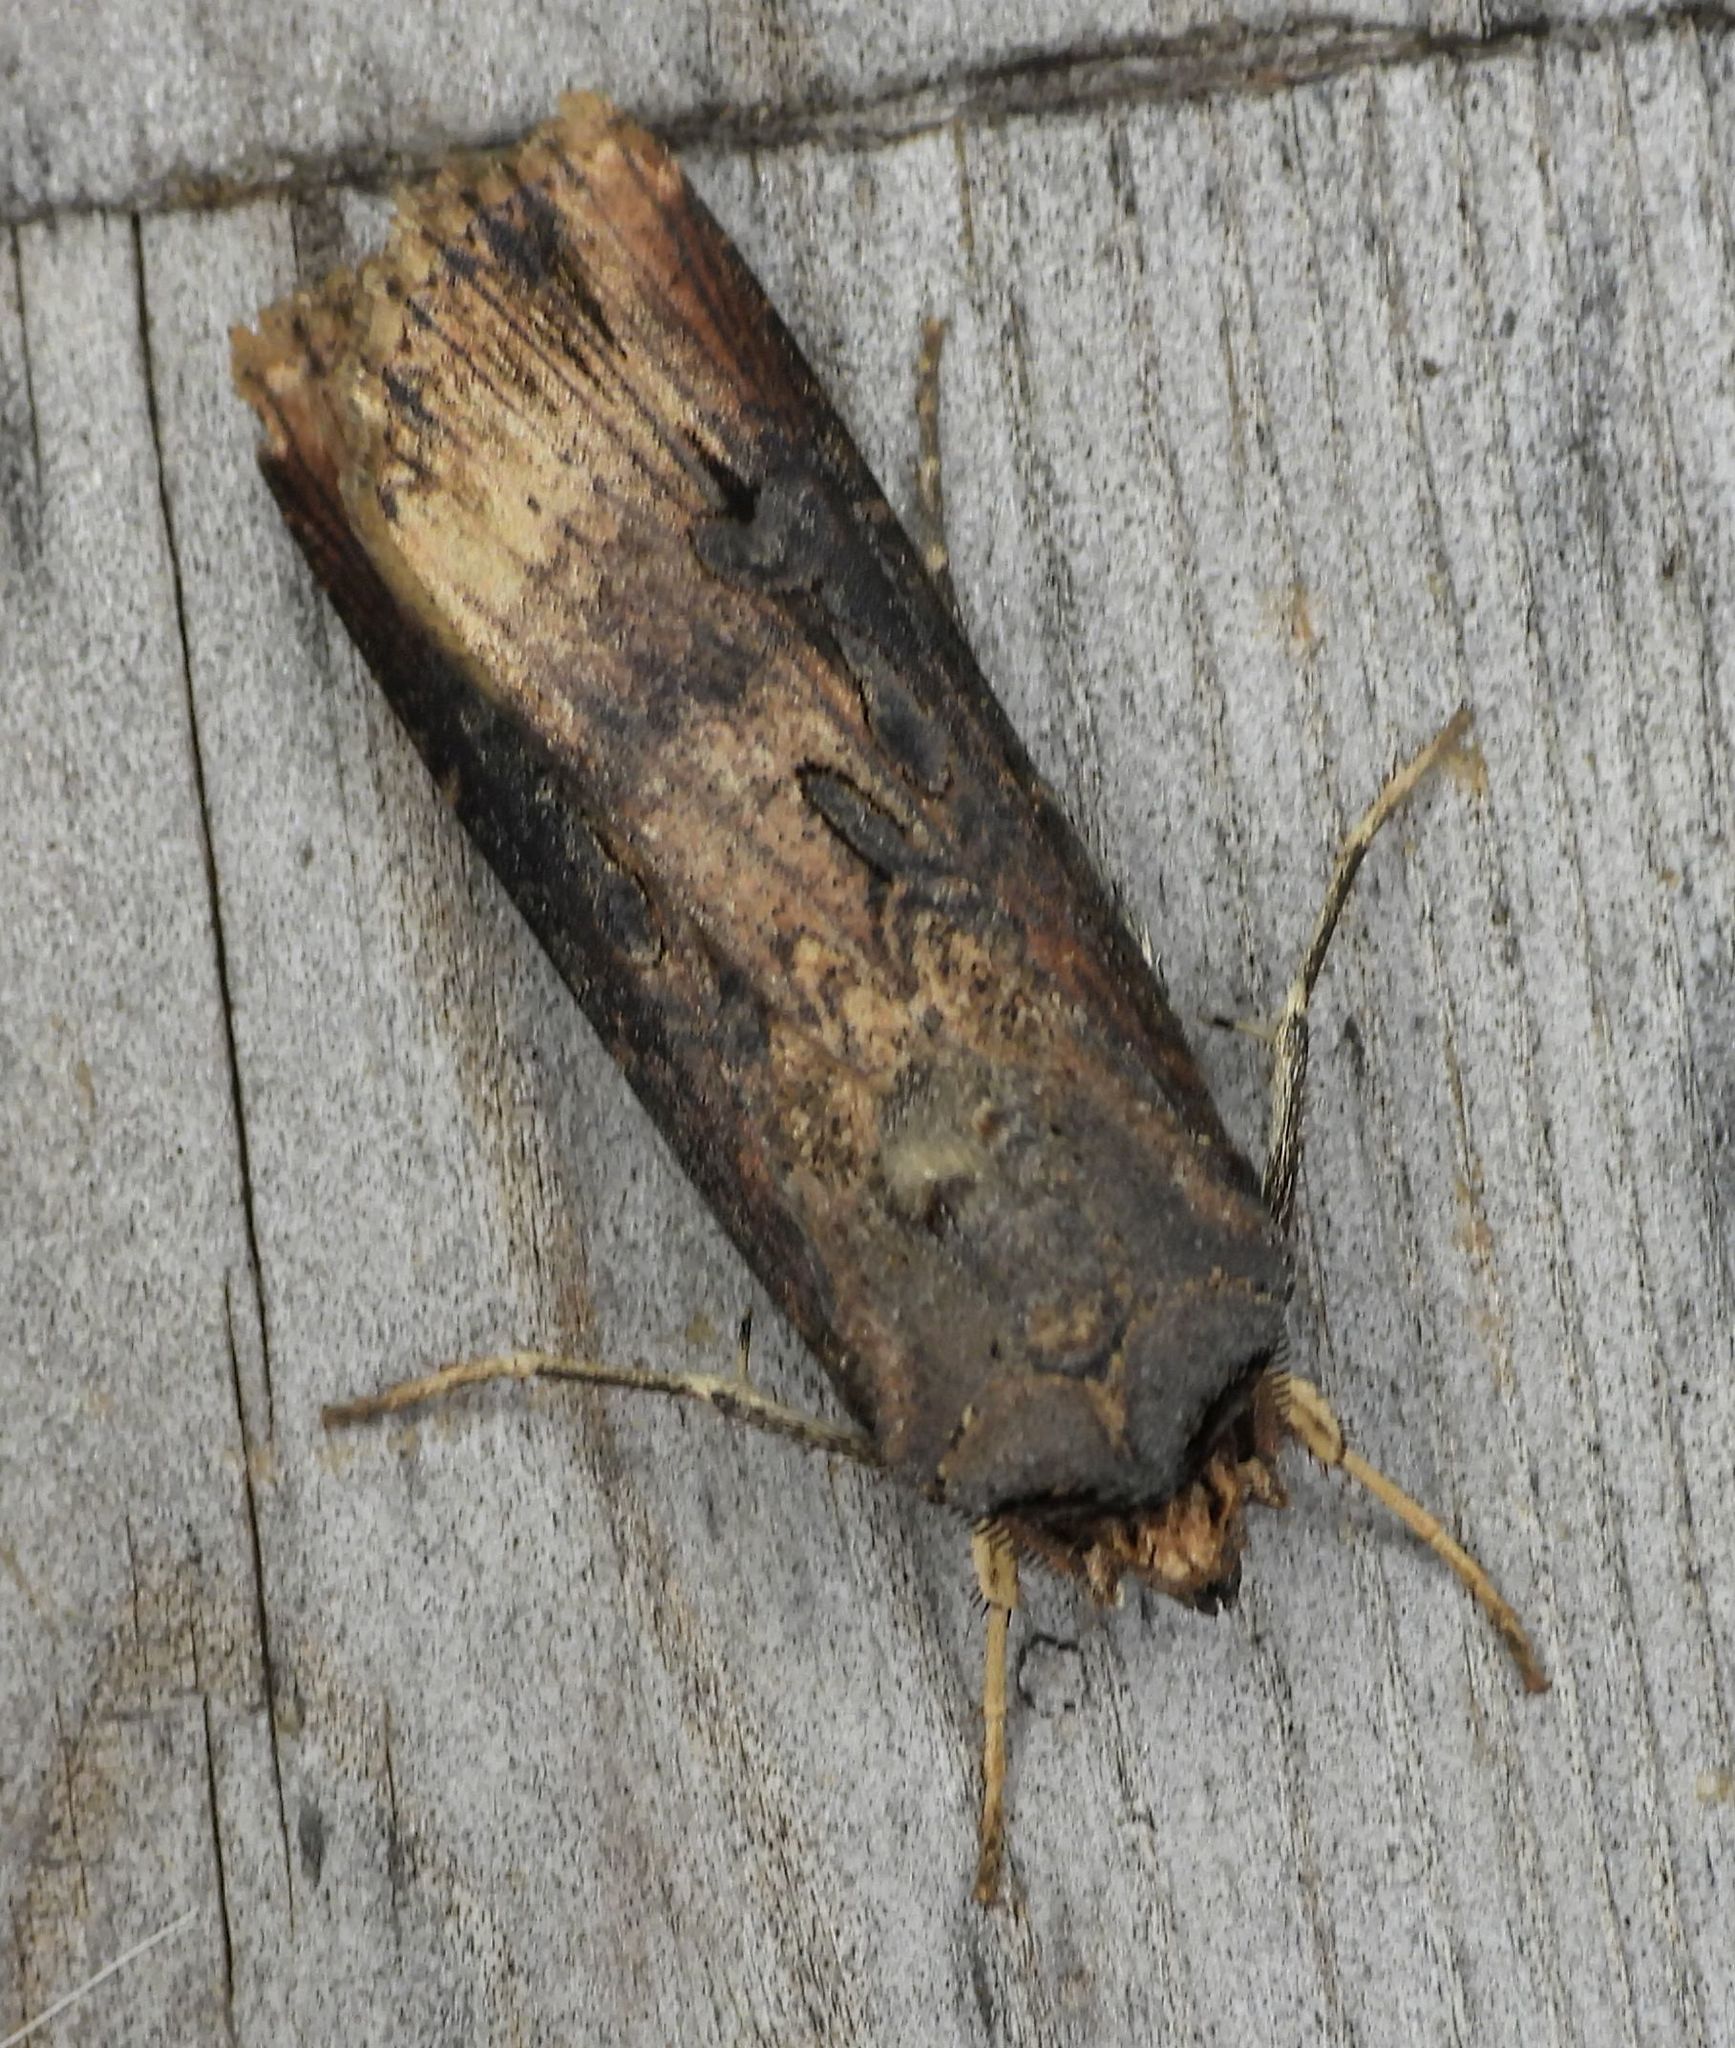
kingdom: Animalia
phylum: Arthropoda
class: Insecta
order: Lepidoptera
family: Noctuidae
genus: Agrotis
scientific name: Agrotis ipsilon
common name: Dark sword-grass
